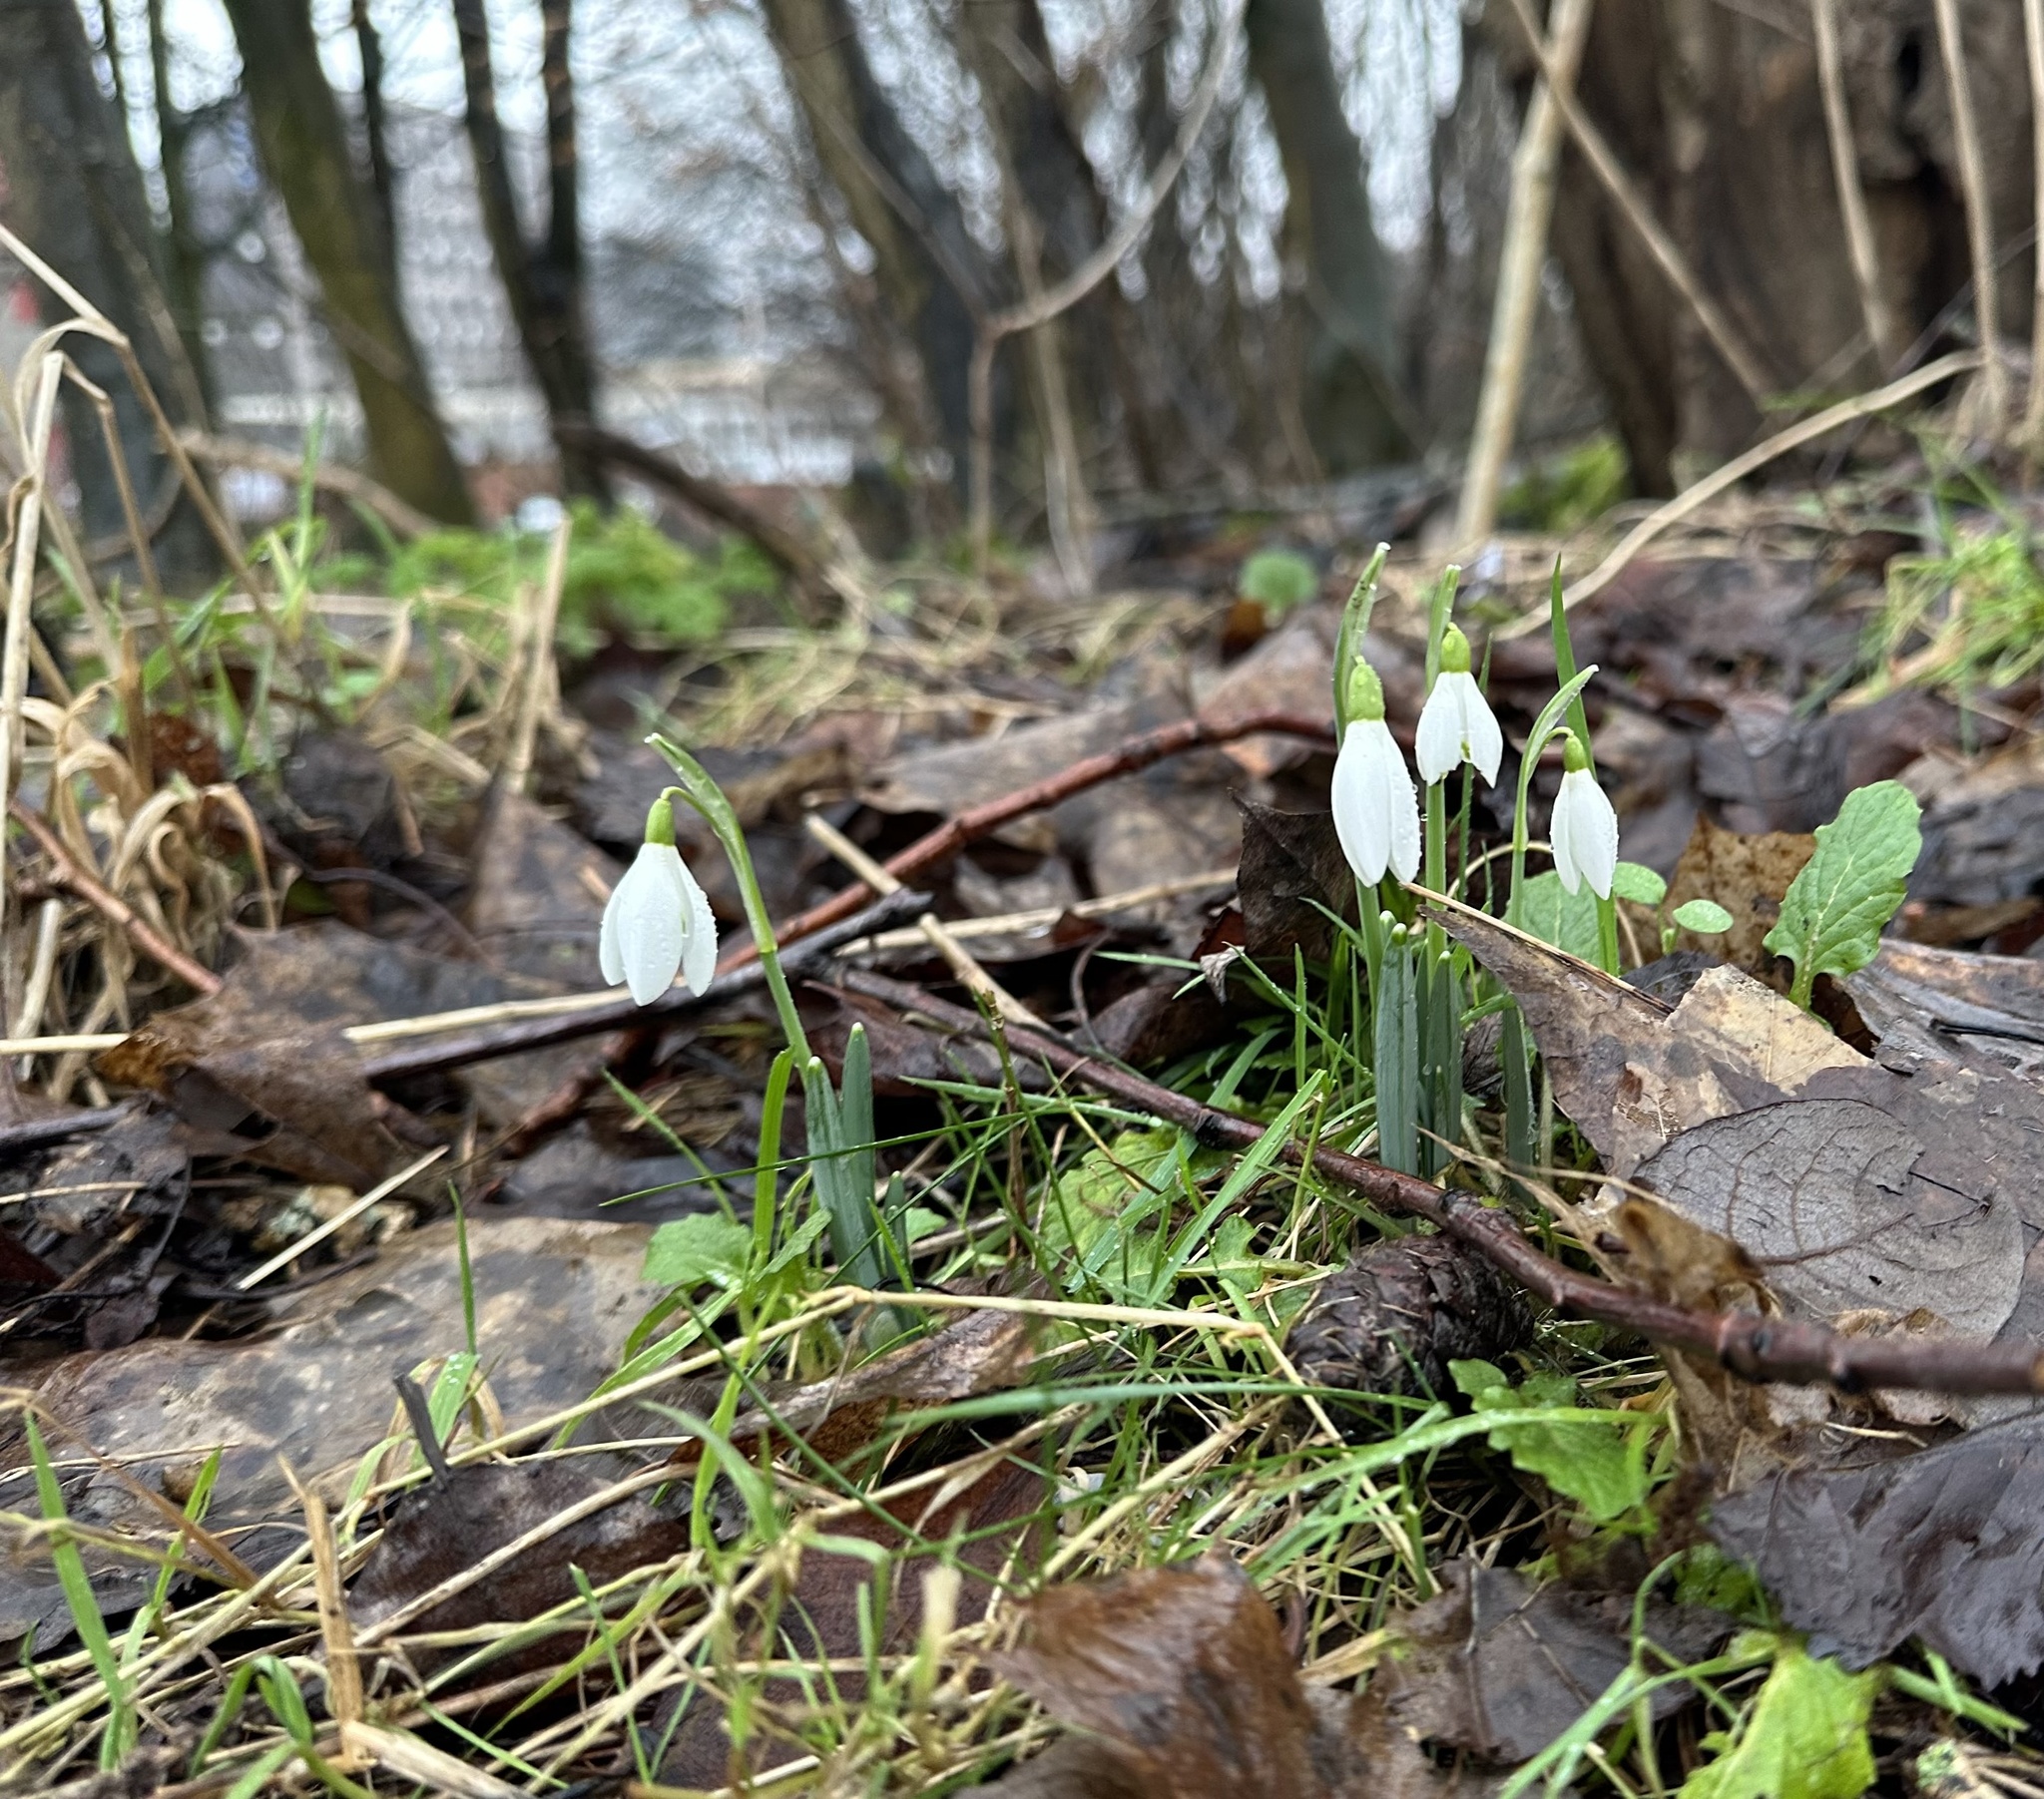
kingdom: Plantae
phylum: Tracheophyta
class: Liliopsida
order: Asparagales
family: Amaryllidaceae
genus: Galanthus
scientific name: Galanthus nivalis
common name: Snowdrop
